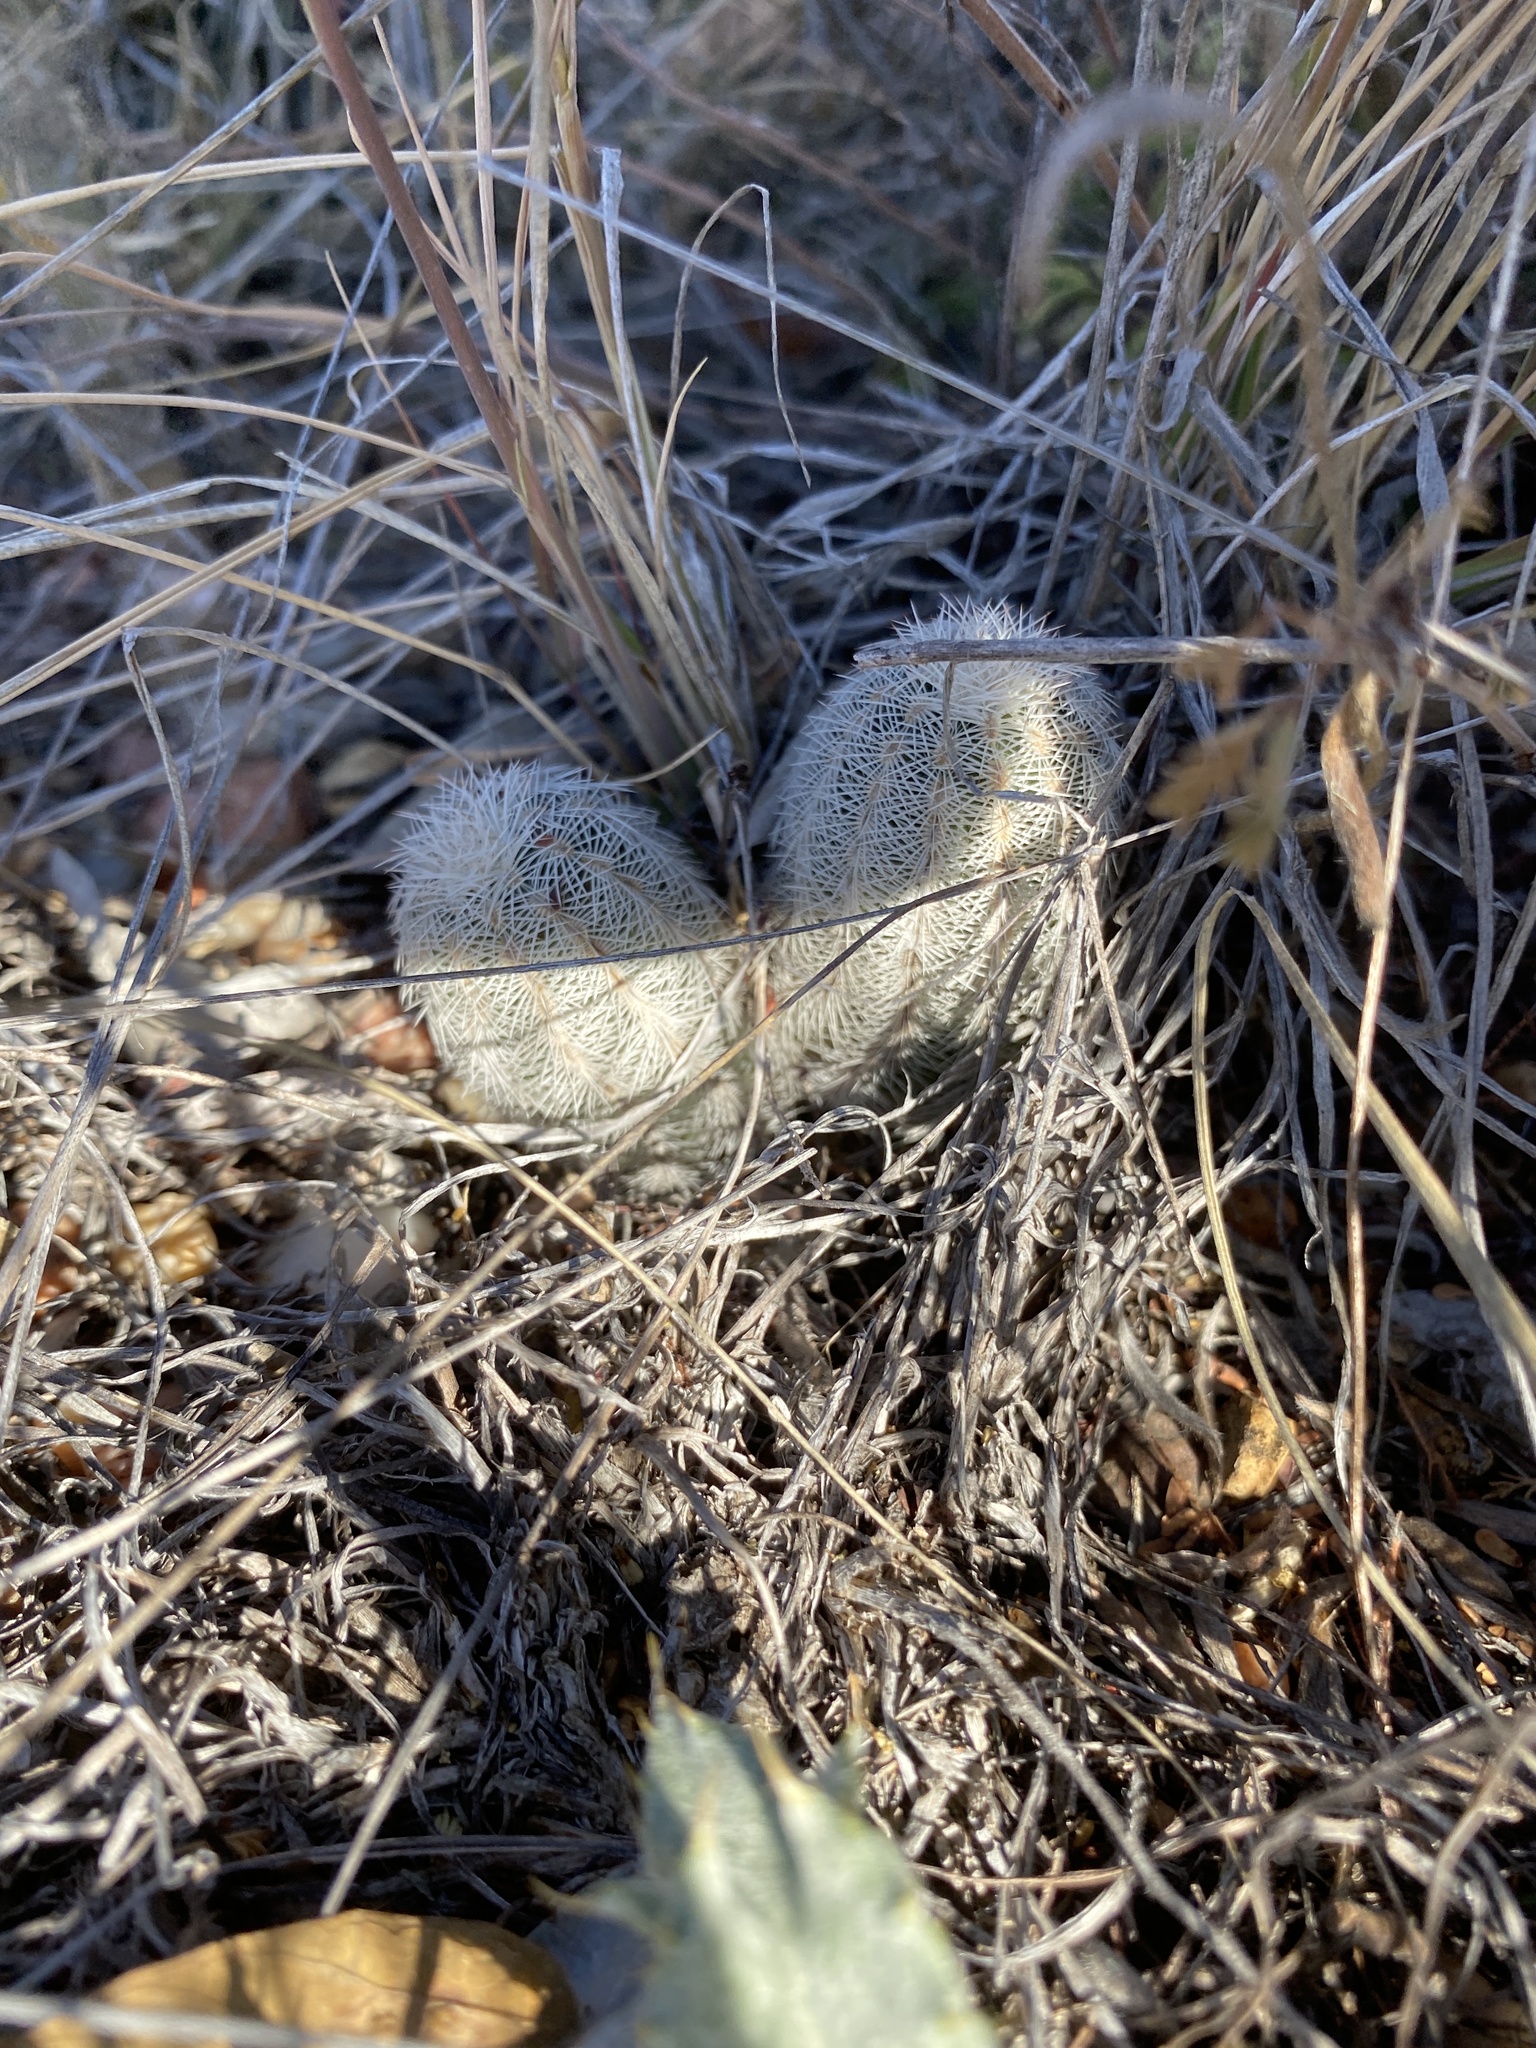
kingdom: Plantae
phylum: Tracheophyta
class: Magnoliopsida
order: Caryophyllales
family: Cactaceae
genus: Echinocereus
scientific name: Echinocereus reichenbachii
